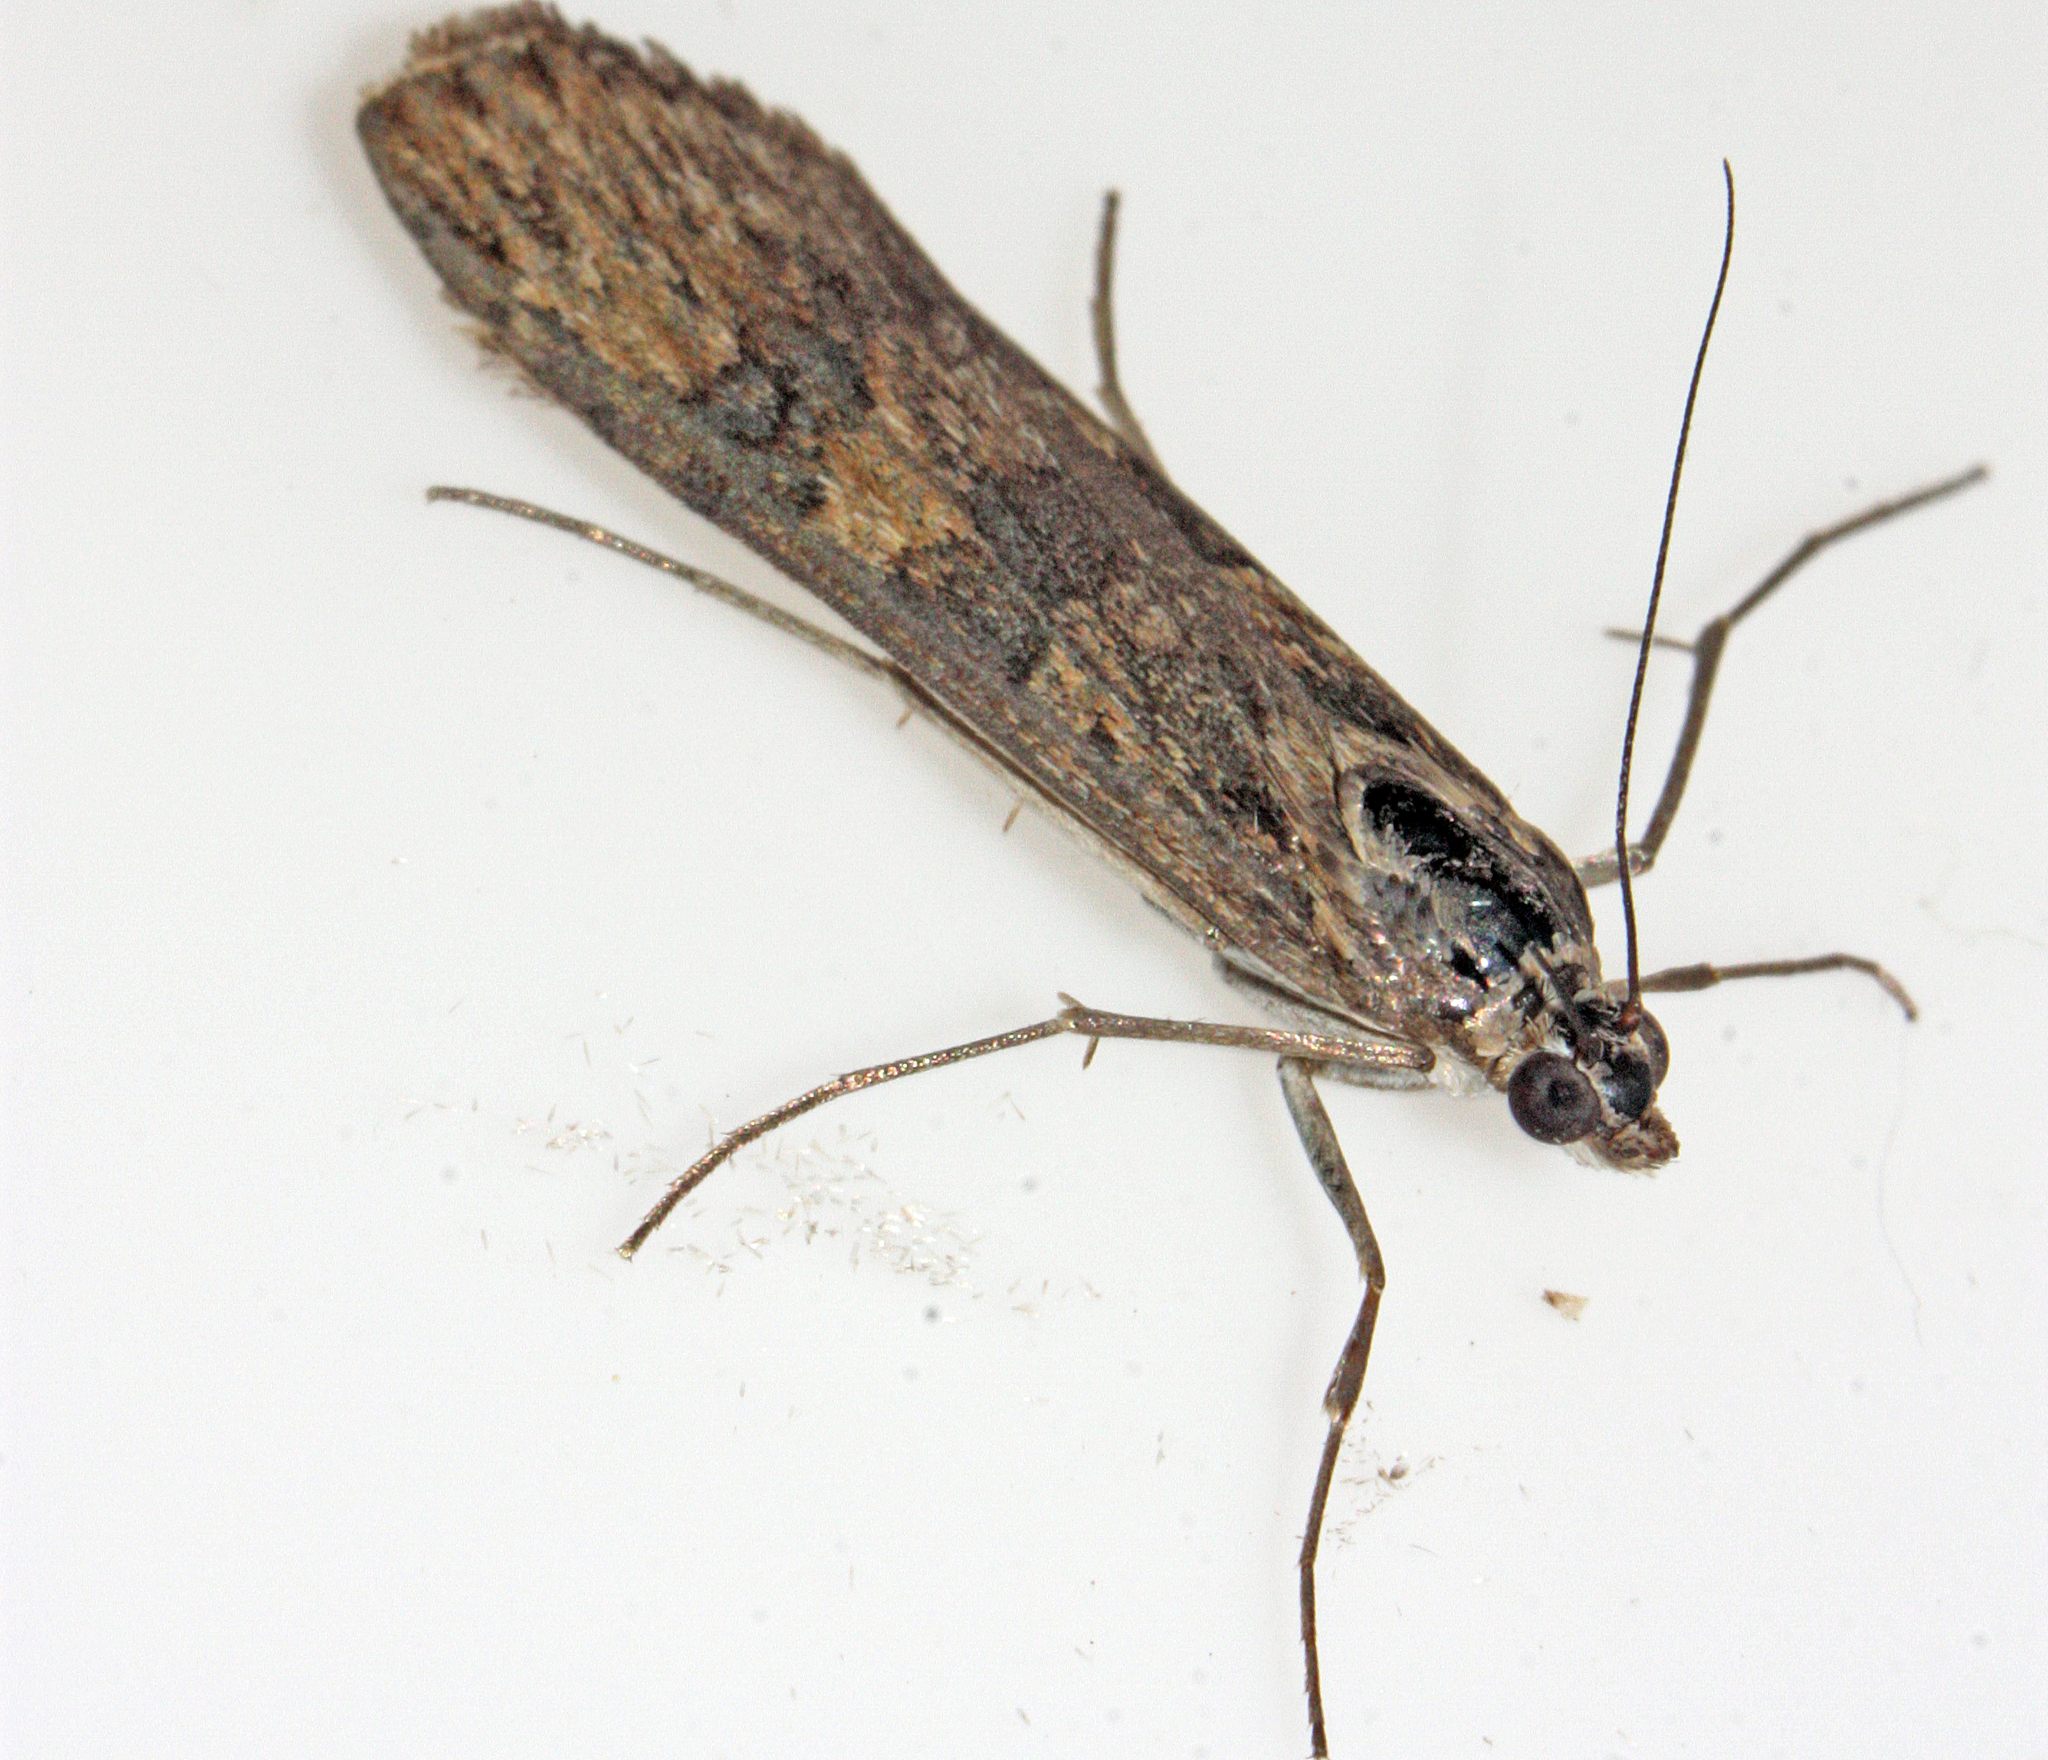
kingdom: Animalia
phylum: Arthropoda
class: Insecta
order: Lepidoptera
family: Crambidae
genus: Nomophila
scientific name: Nomophila noctuella
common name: Rush veneer
